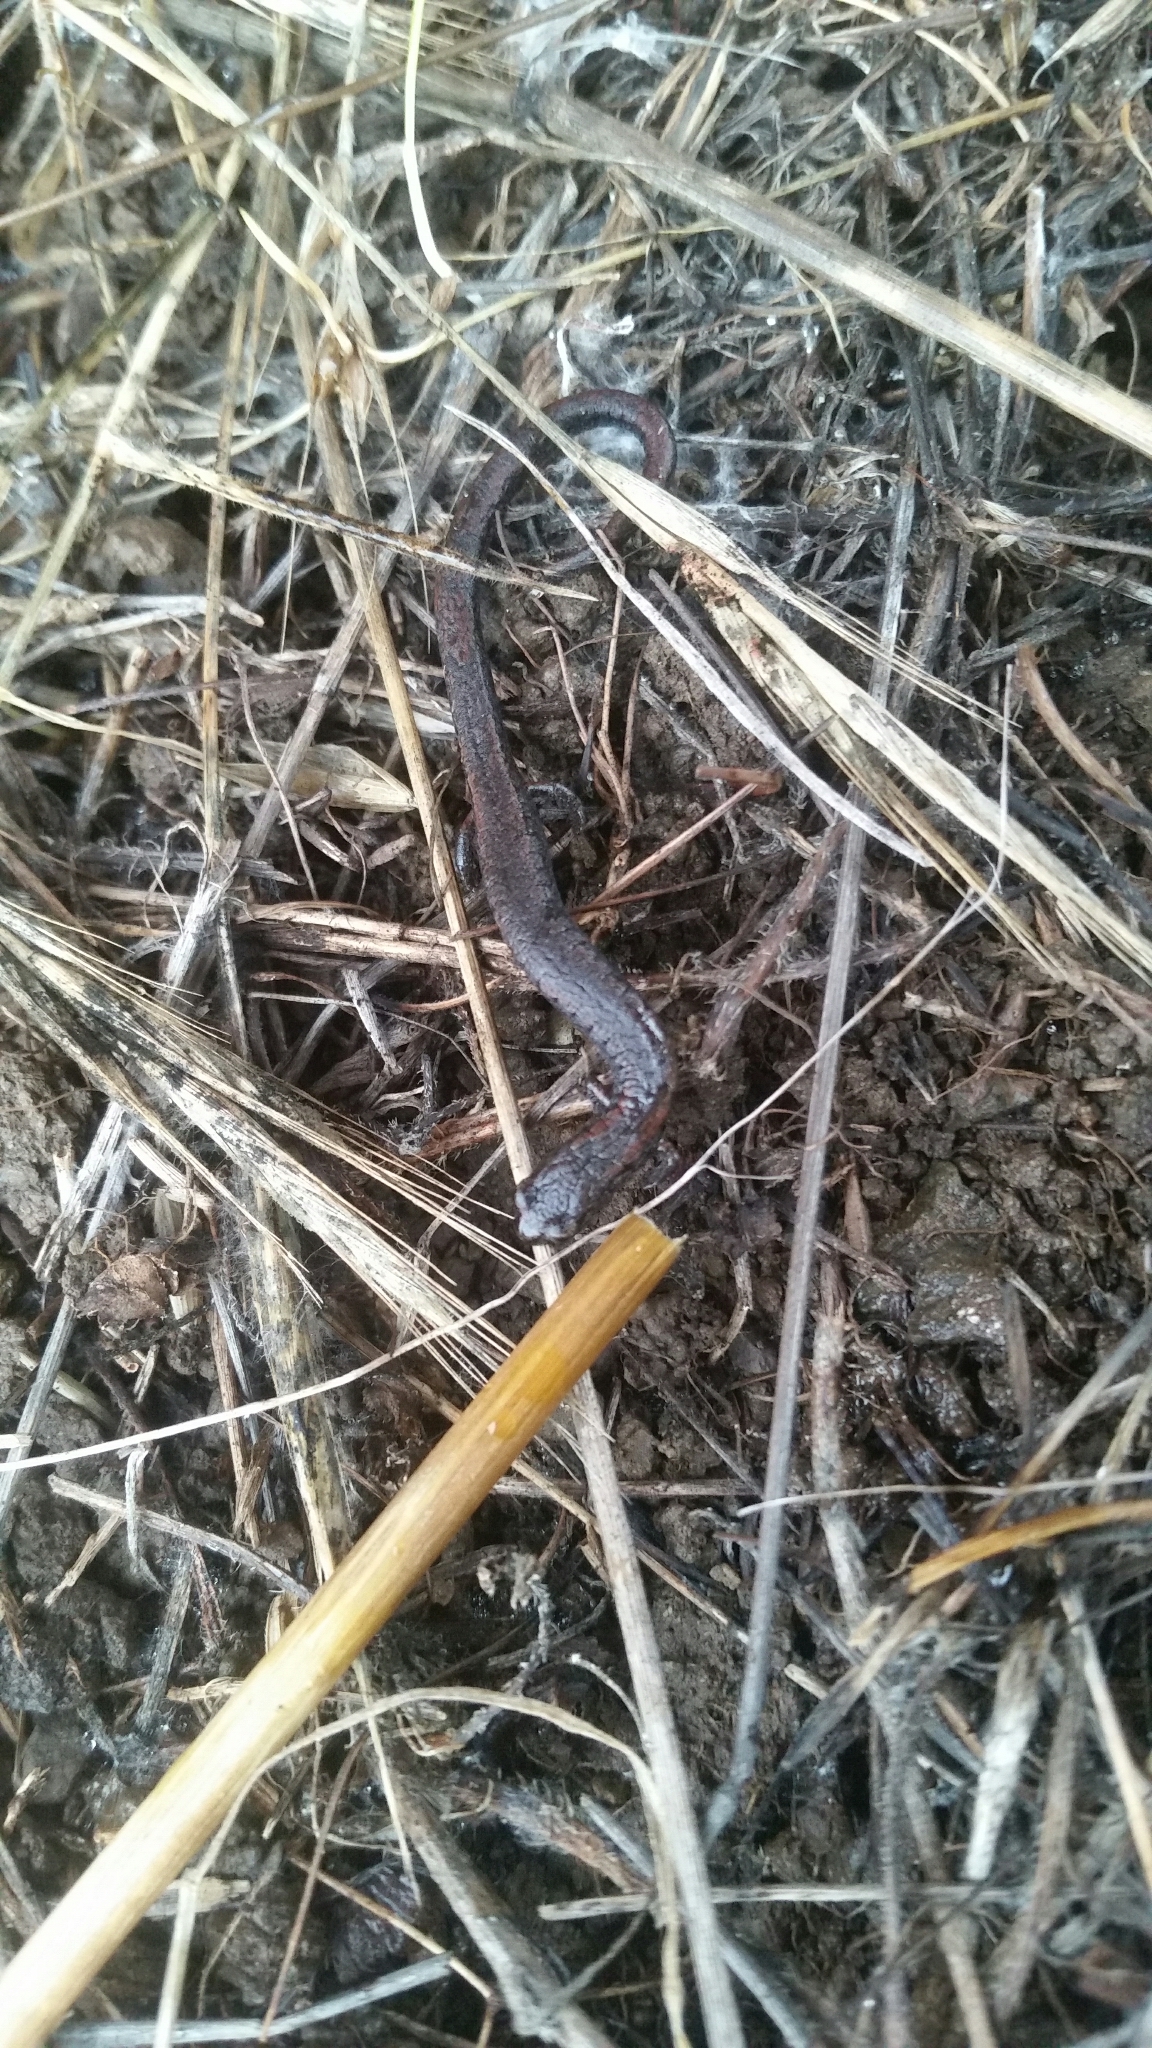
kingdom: Animalia
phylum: Chordata
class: Amphibia
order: Caudata
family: Plethodontidae
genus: Batrachoseps
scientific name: Batrachoseps attenuatus
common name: California slender salamander
